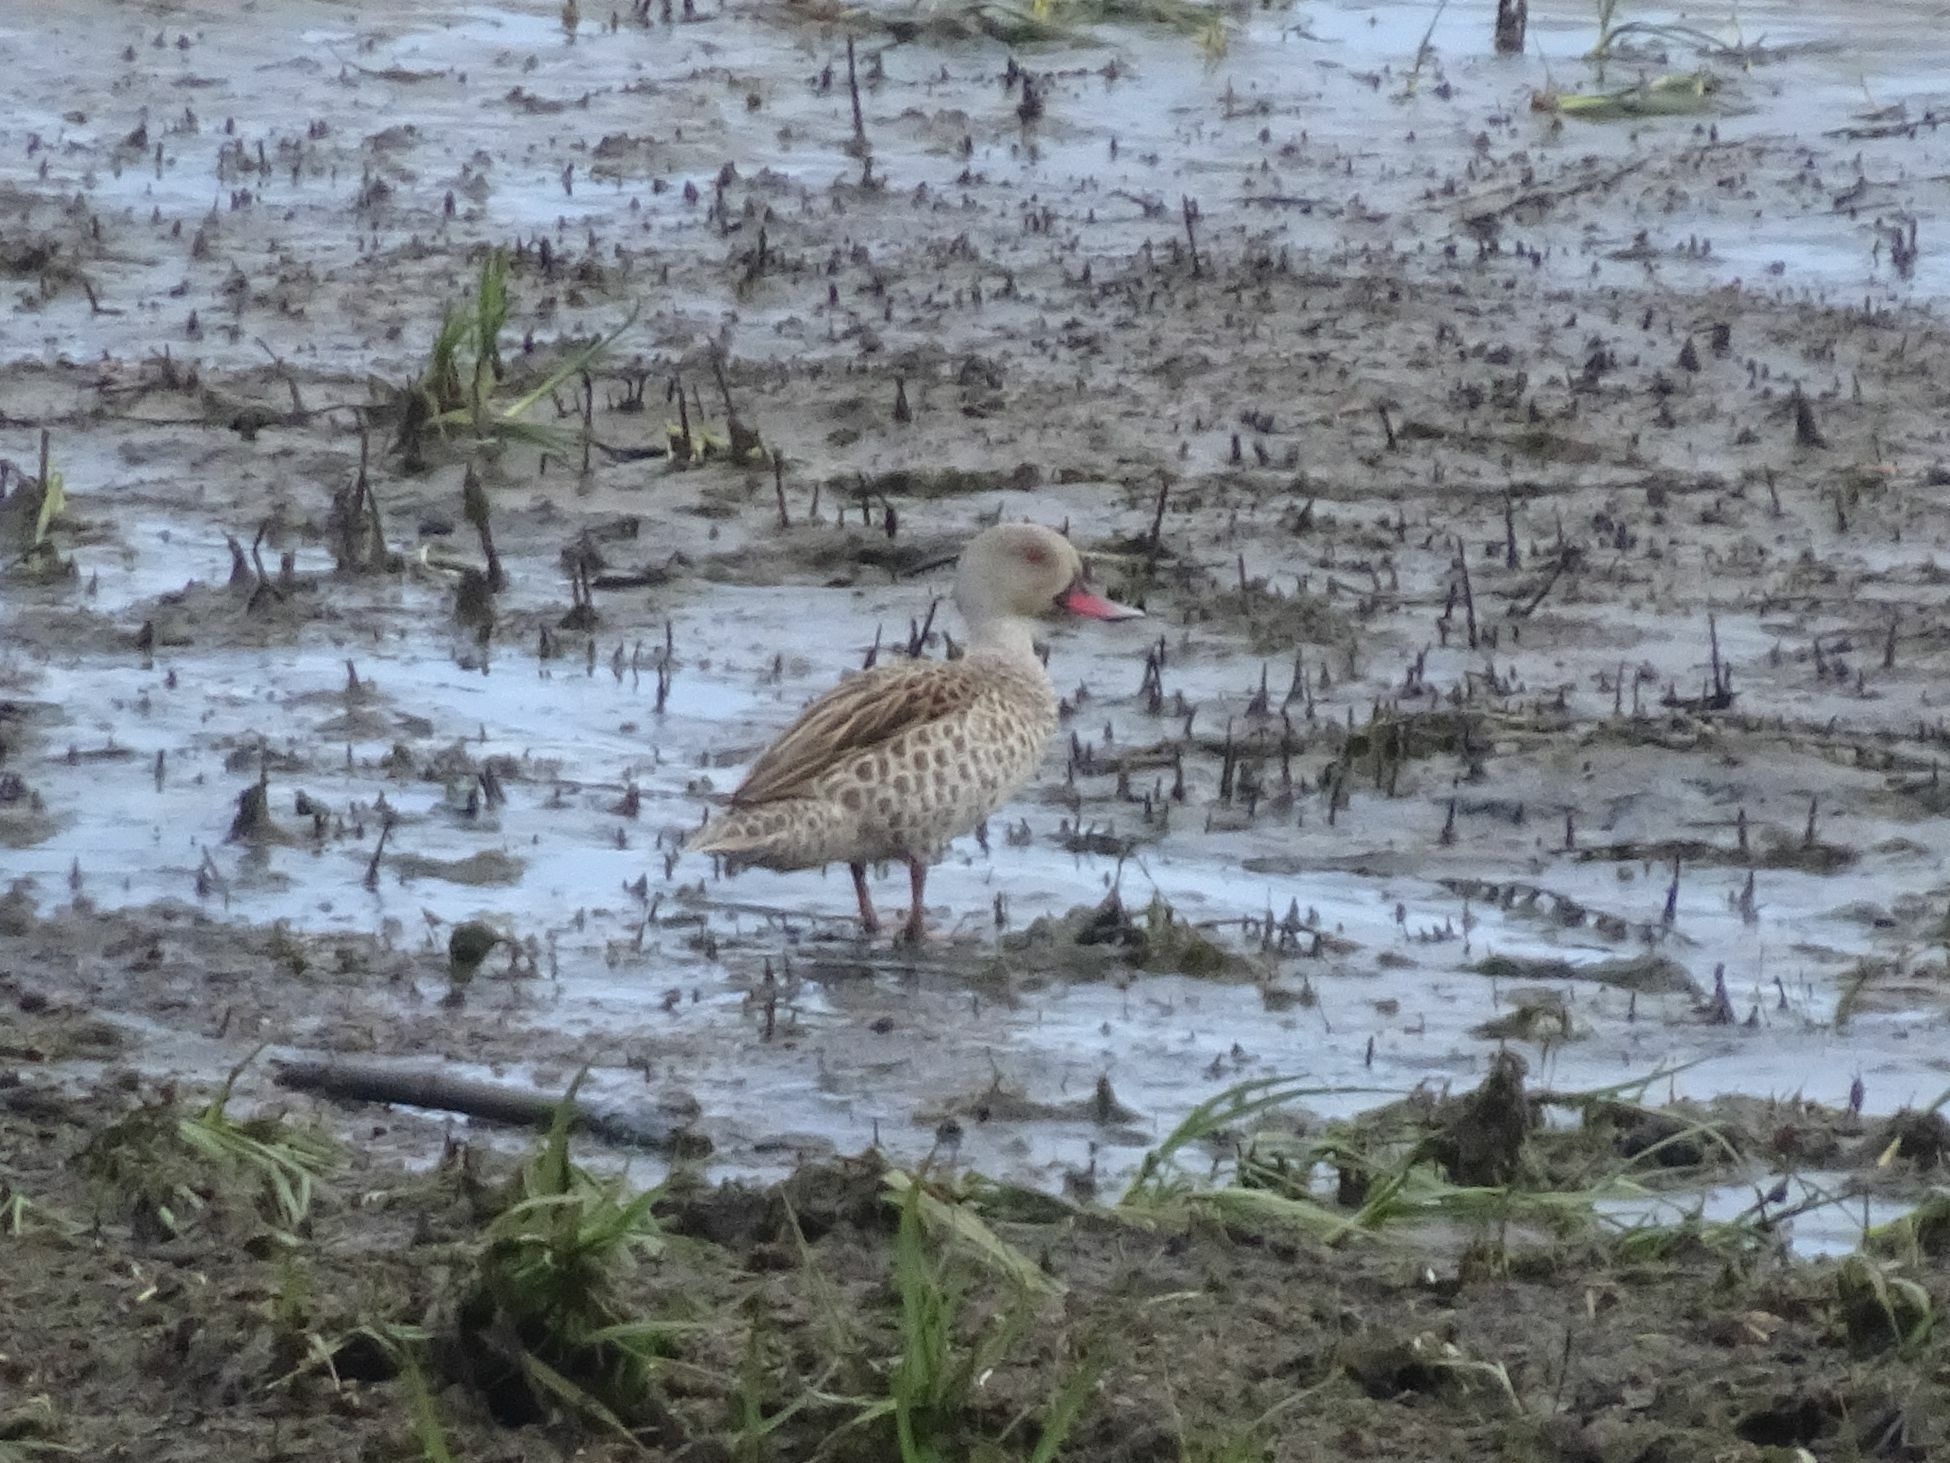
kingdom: Animalia
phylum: Chordata
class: Aves
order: Anseriformes
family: Anatidae
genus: Anas
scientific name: Anas capensis
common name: Cape teal
